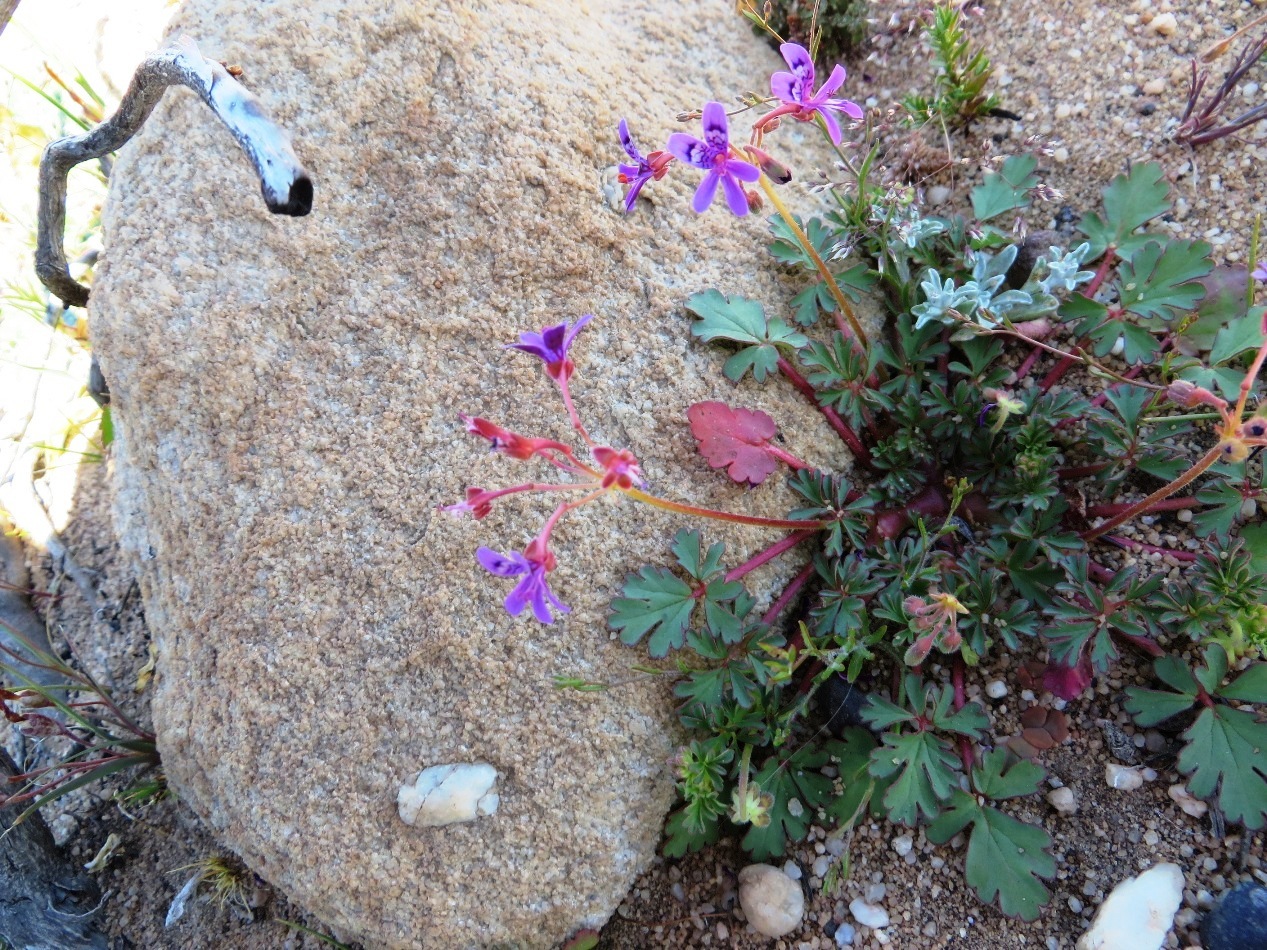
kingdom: Plantae
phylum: Tracheophyta
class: Magnoliopsida
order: Geraniales
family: Geraniaceae
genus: Pelargonium
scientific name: Pelargonium columbinum
